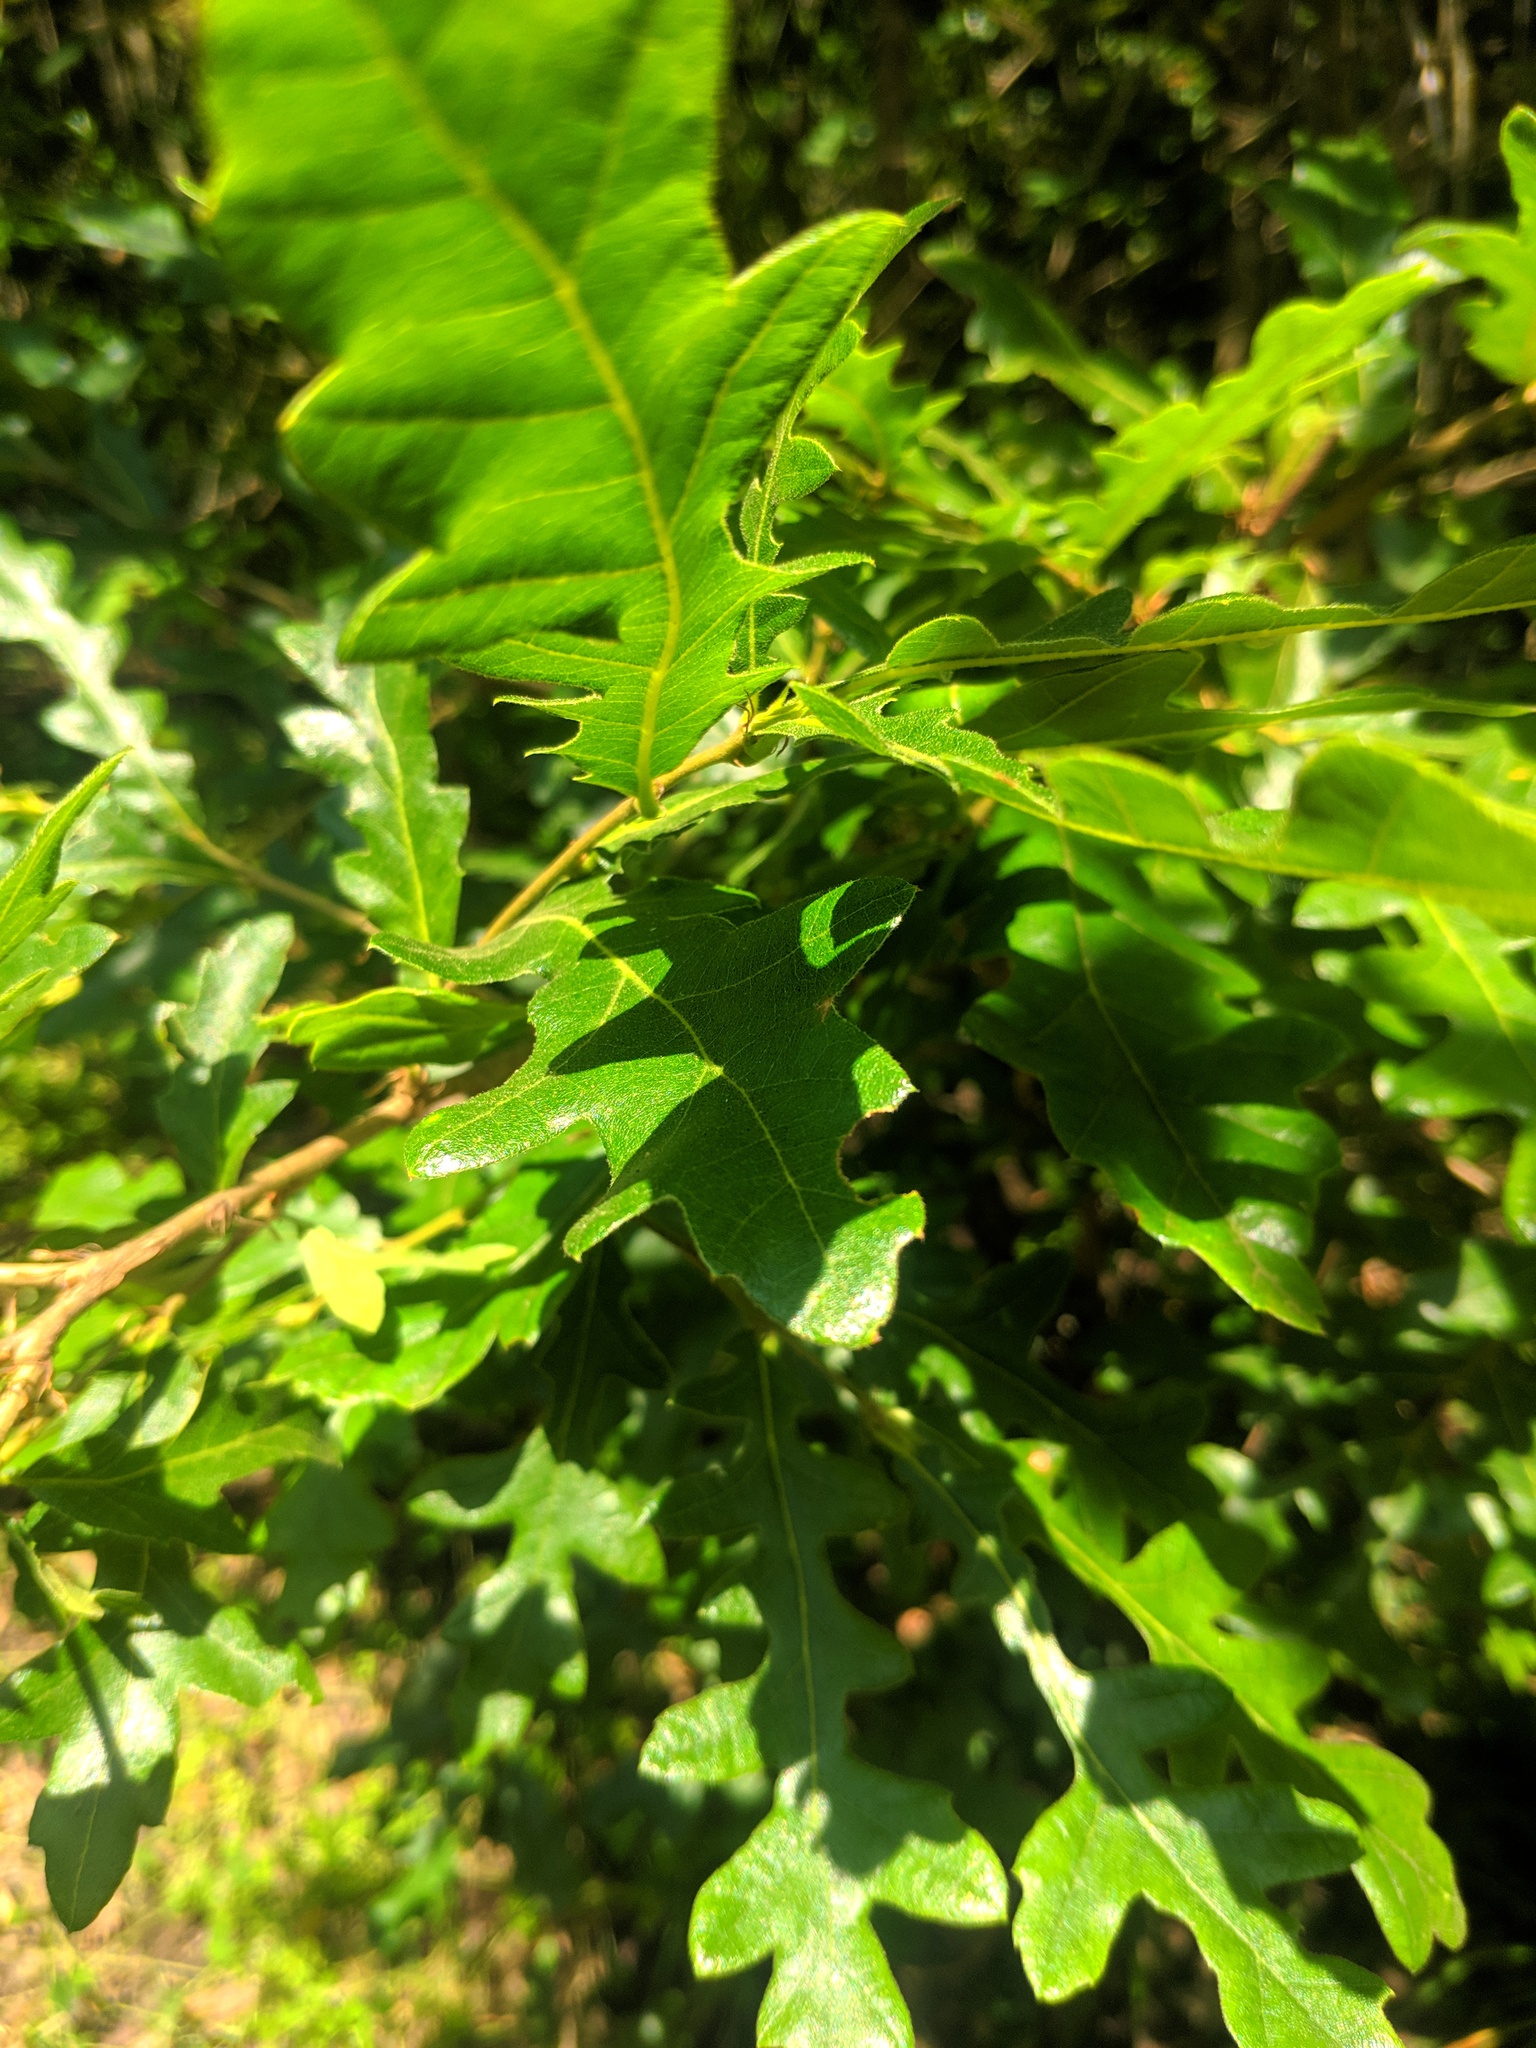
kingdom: Plantae
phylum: Tracheophyta
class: Magnoliopsida
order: Fagales
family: Fagaceae
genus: Quercus
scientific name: Quercus cerris
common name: Turkey oak
